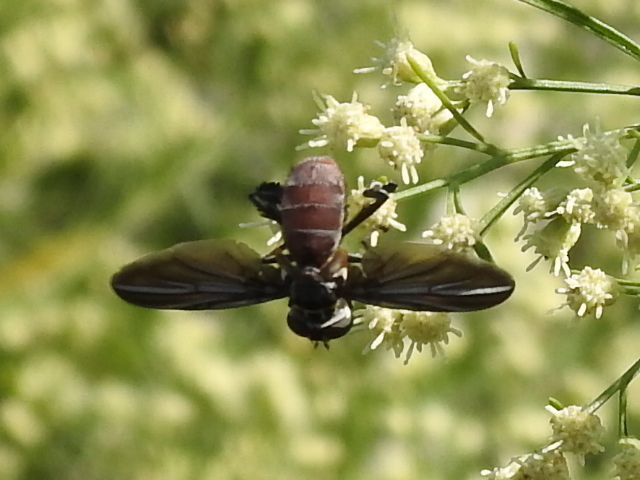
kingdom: Animalia
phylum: Arthropoda
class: Insecta
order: Diptera
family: Tachinidae
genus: Trichopoda
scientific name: Trichopoda lanipes
